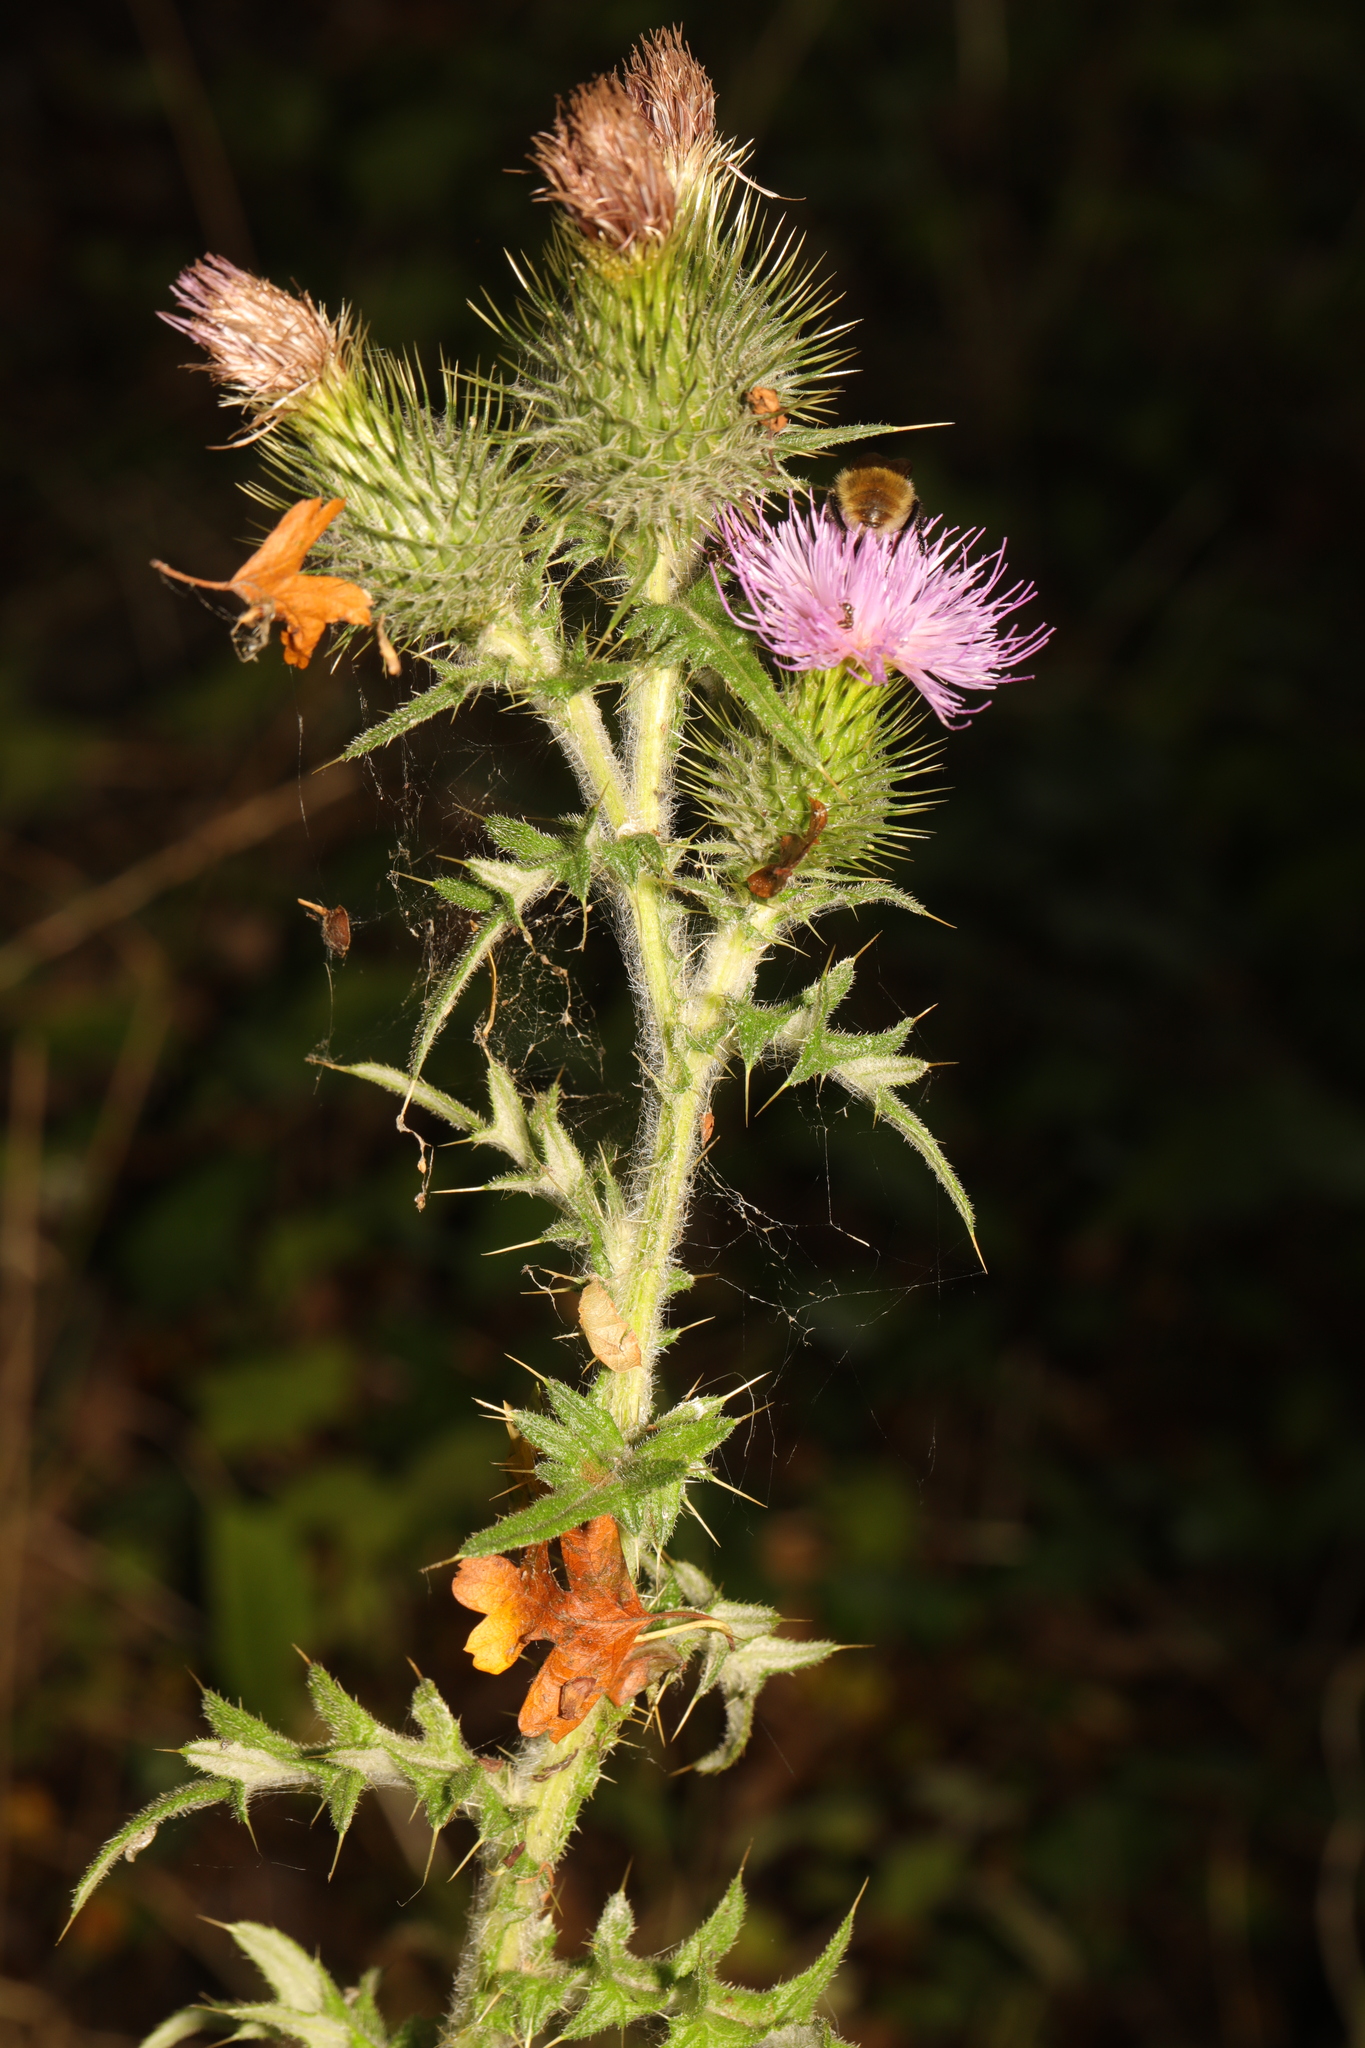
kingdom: Plantae
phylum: Tracheophyta
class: Magnoliopsida
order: Asterales
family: Asteraceae
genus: Cirsium
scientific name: Cirsium vulgare
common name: Bull thistle
